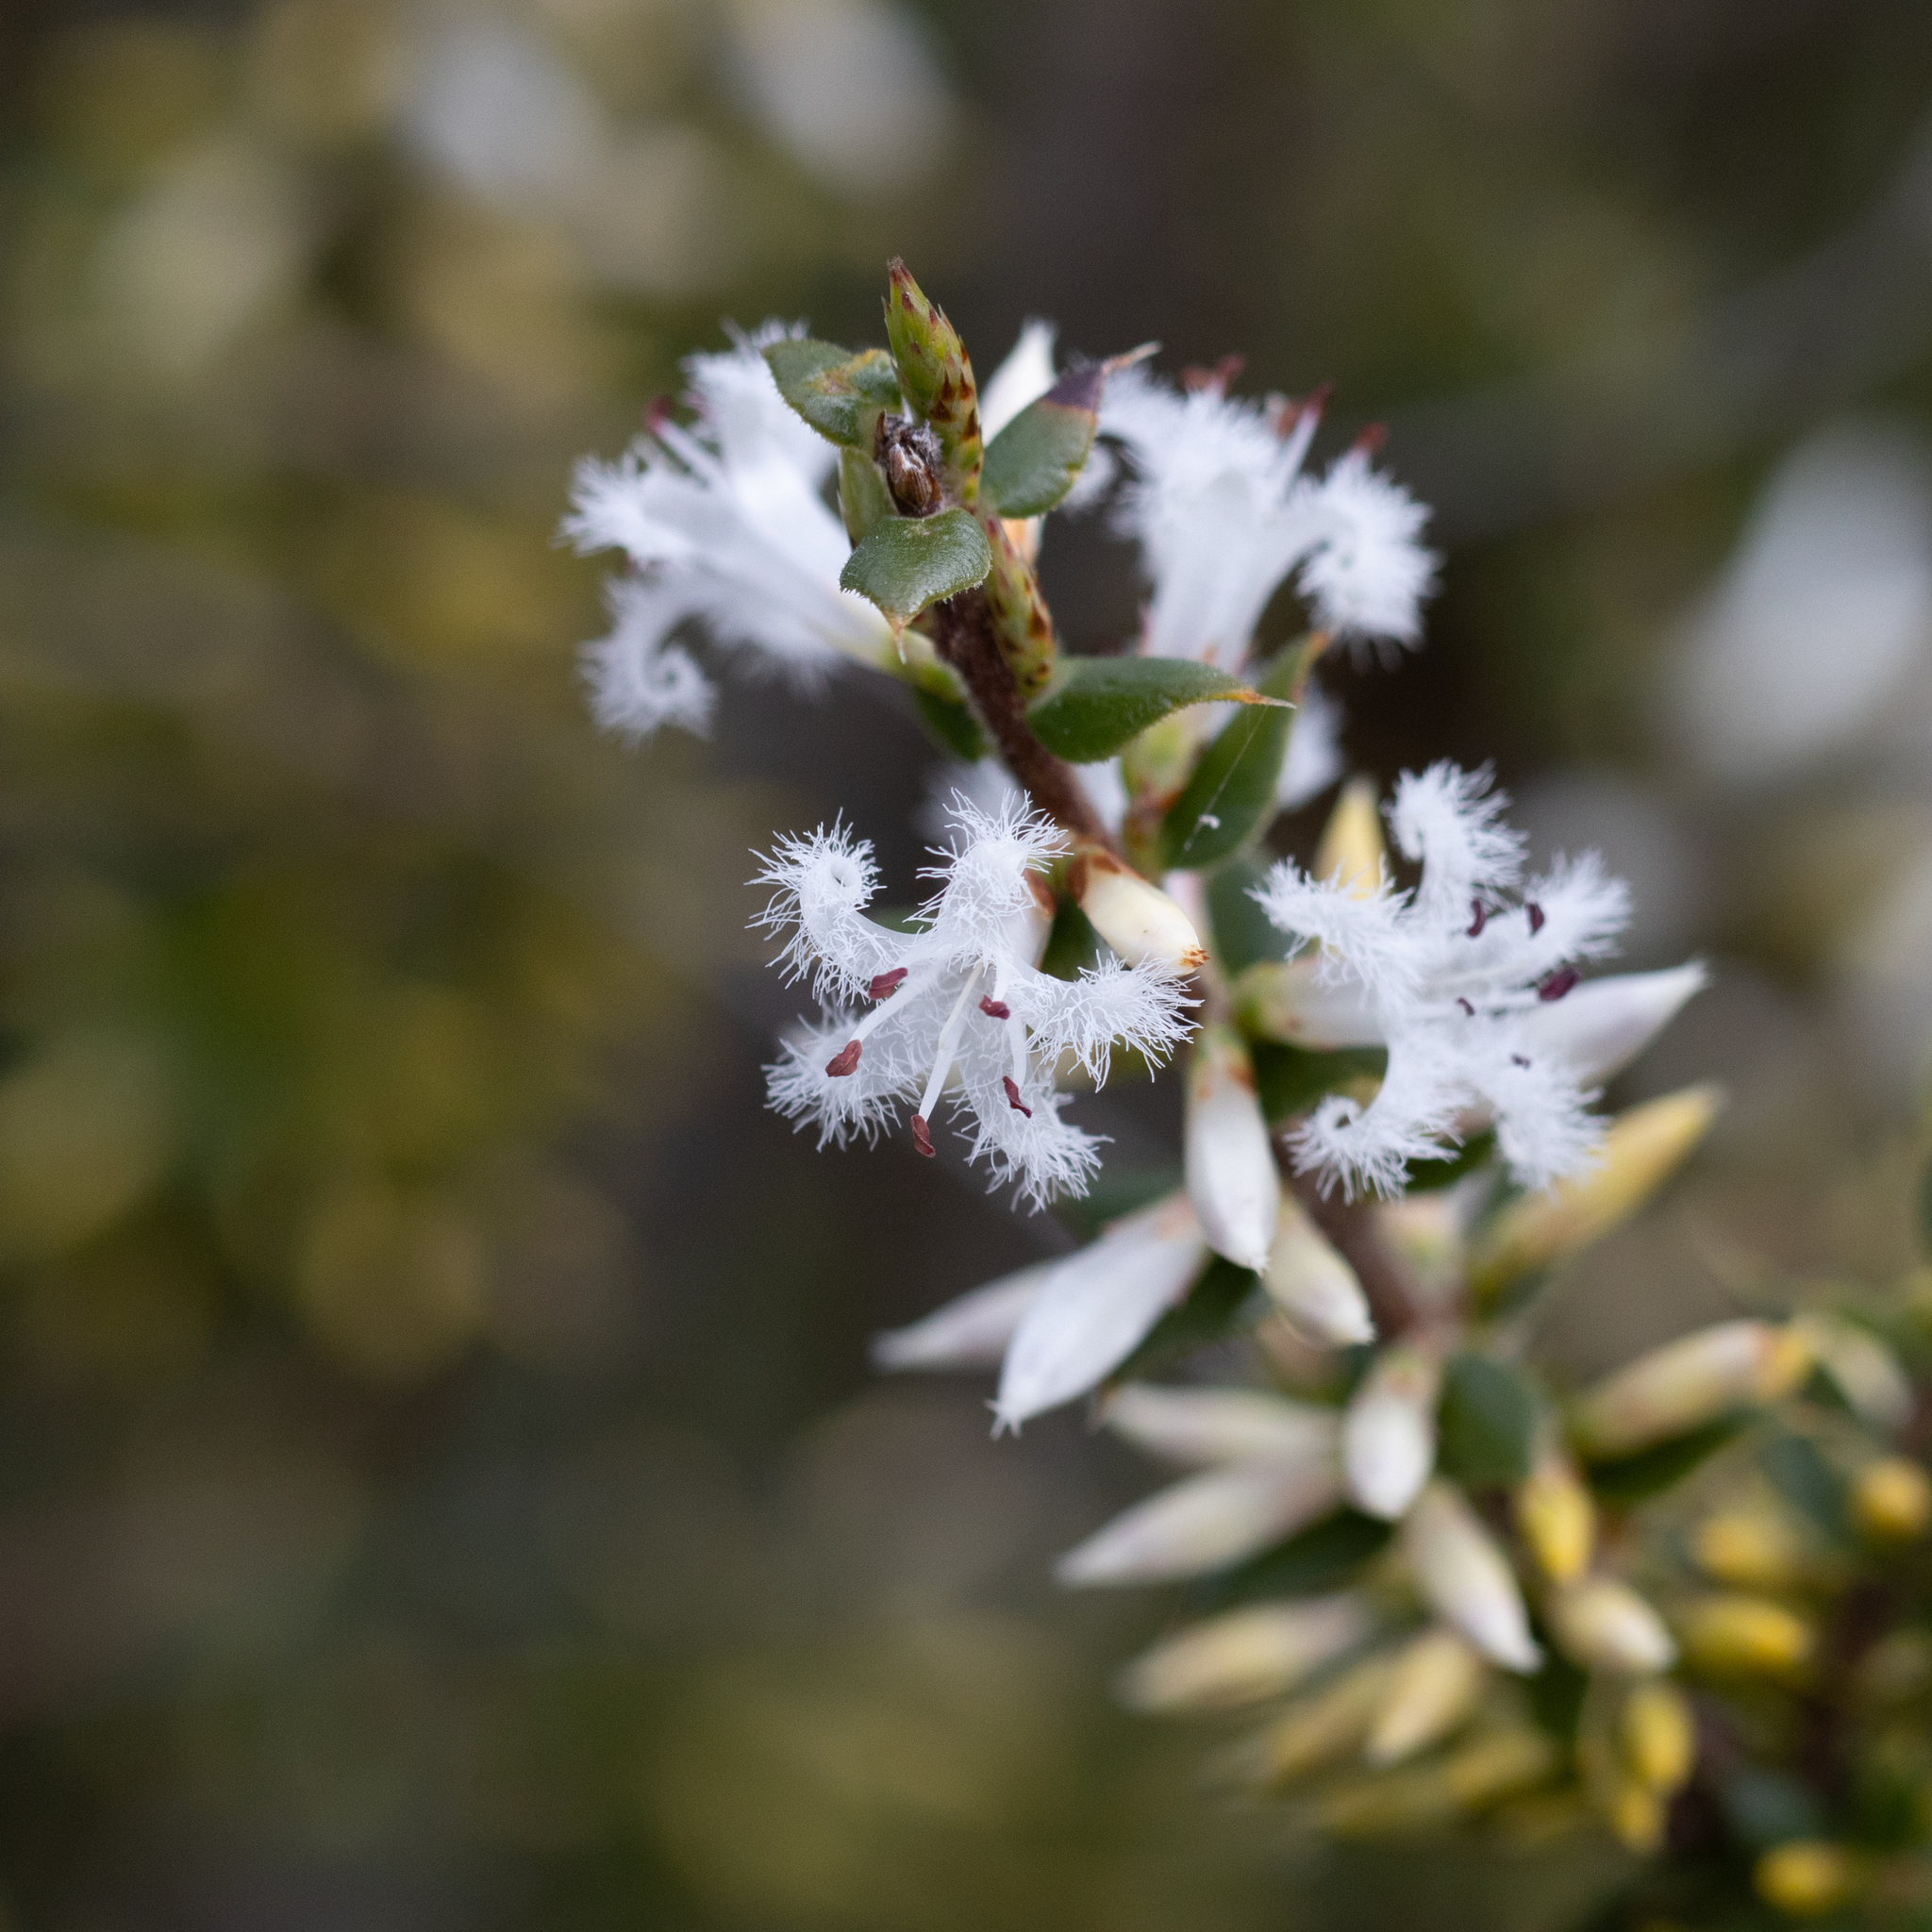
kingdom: Plantae
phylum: Tracheophyta
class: Magnoliopsida
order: Ericales
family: Ericaceae
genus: Styphelia
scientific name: Styphelia exarrhena
